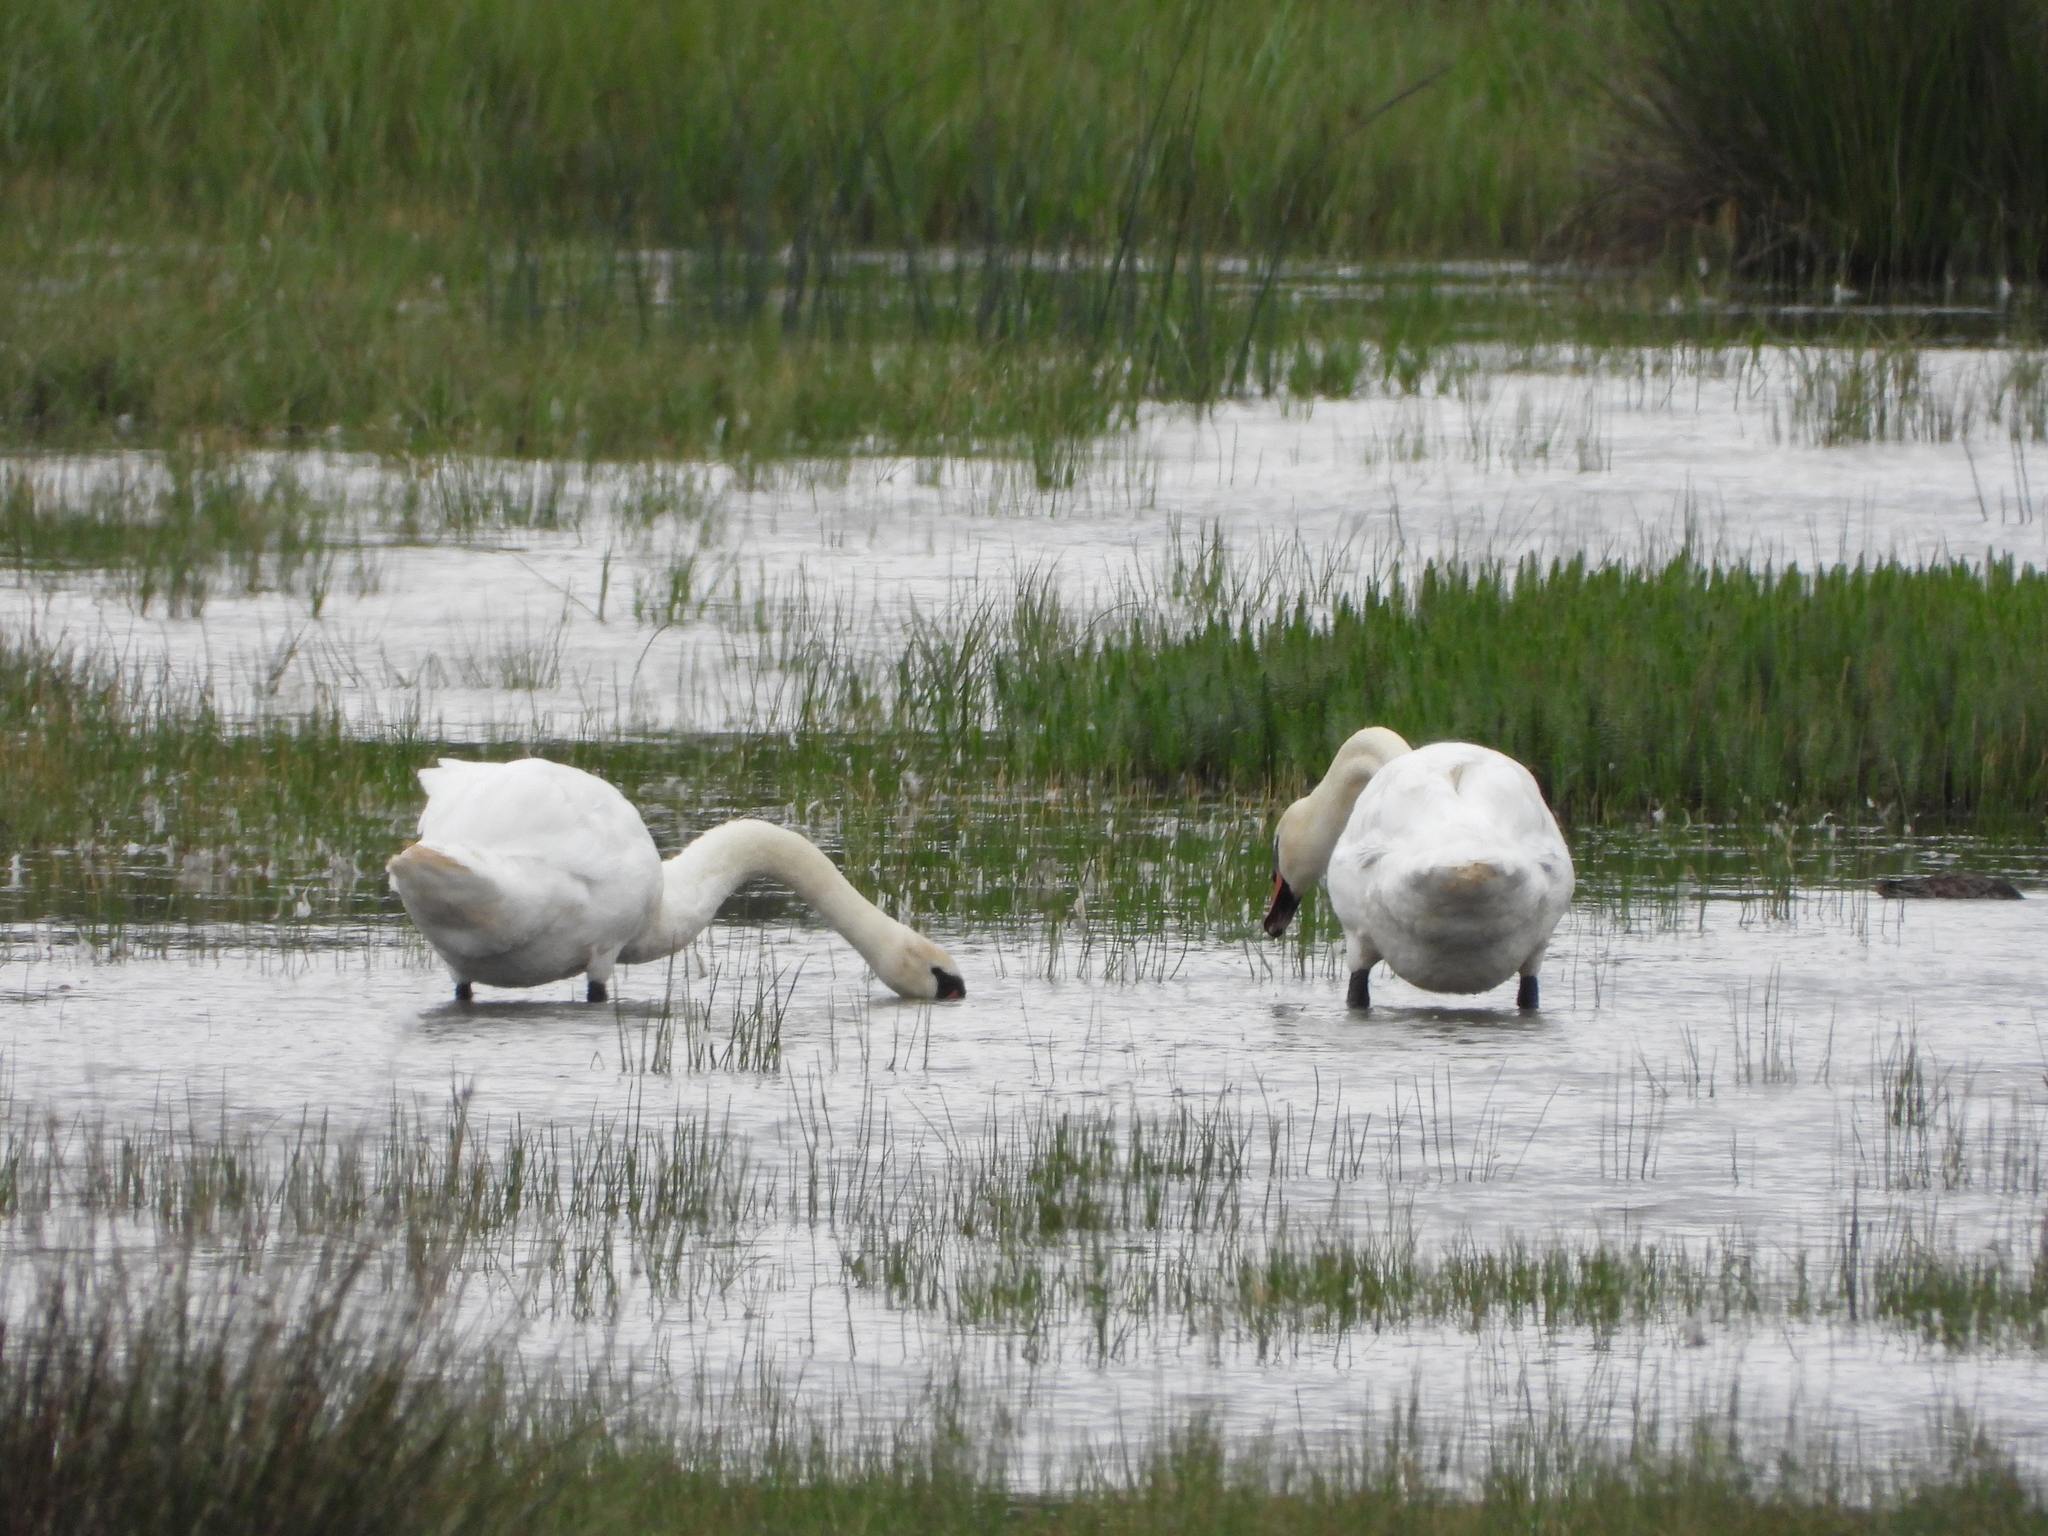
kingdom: Animalia
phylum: Chordata
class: Aves
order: Anseriformes
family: Anatidae
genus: Cygnus
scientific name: Cygnus olor
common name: Mute swan
